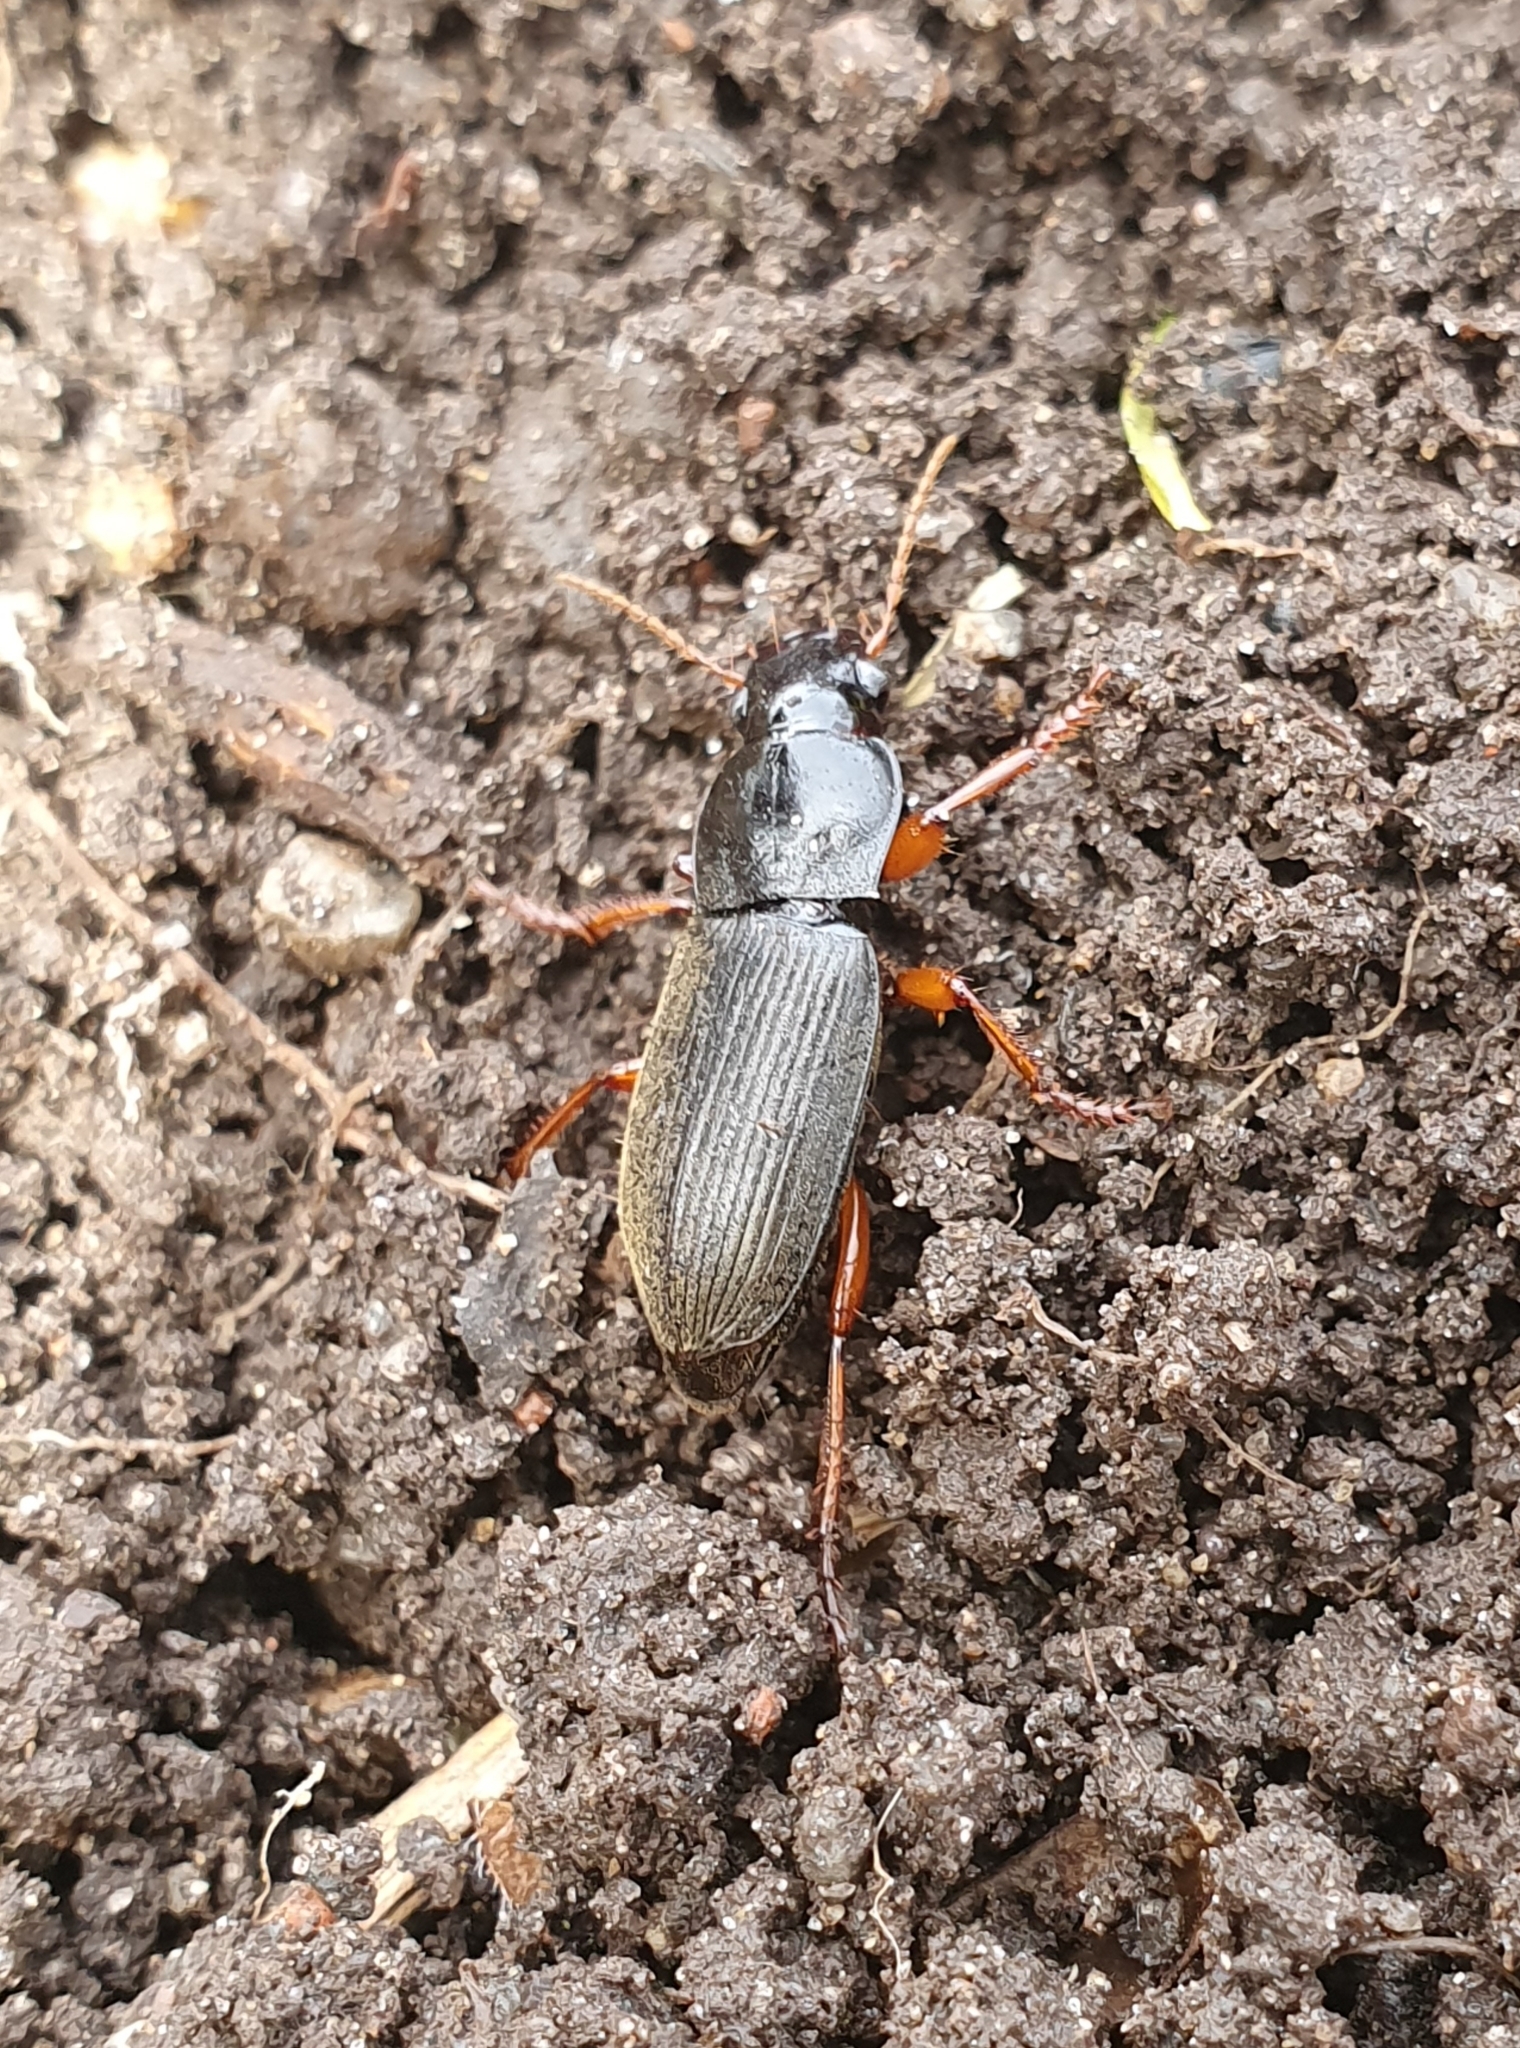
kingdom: Animalia
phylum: Arthropoda
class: Insecta
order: Coleoptera
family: Carabidae
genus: Harpalus
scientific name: Harpalus rufipes
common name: Strawberry harp ground beetle
